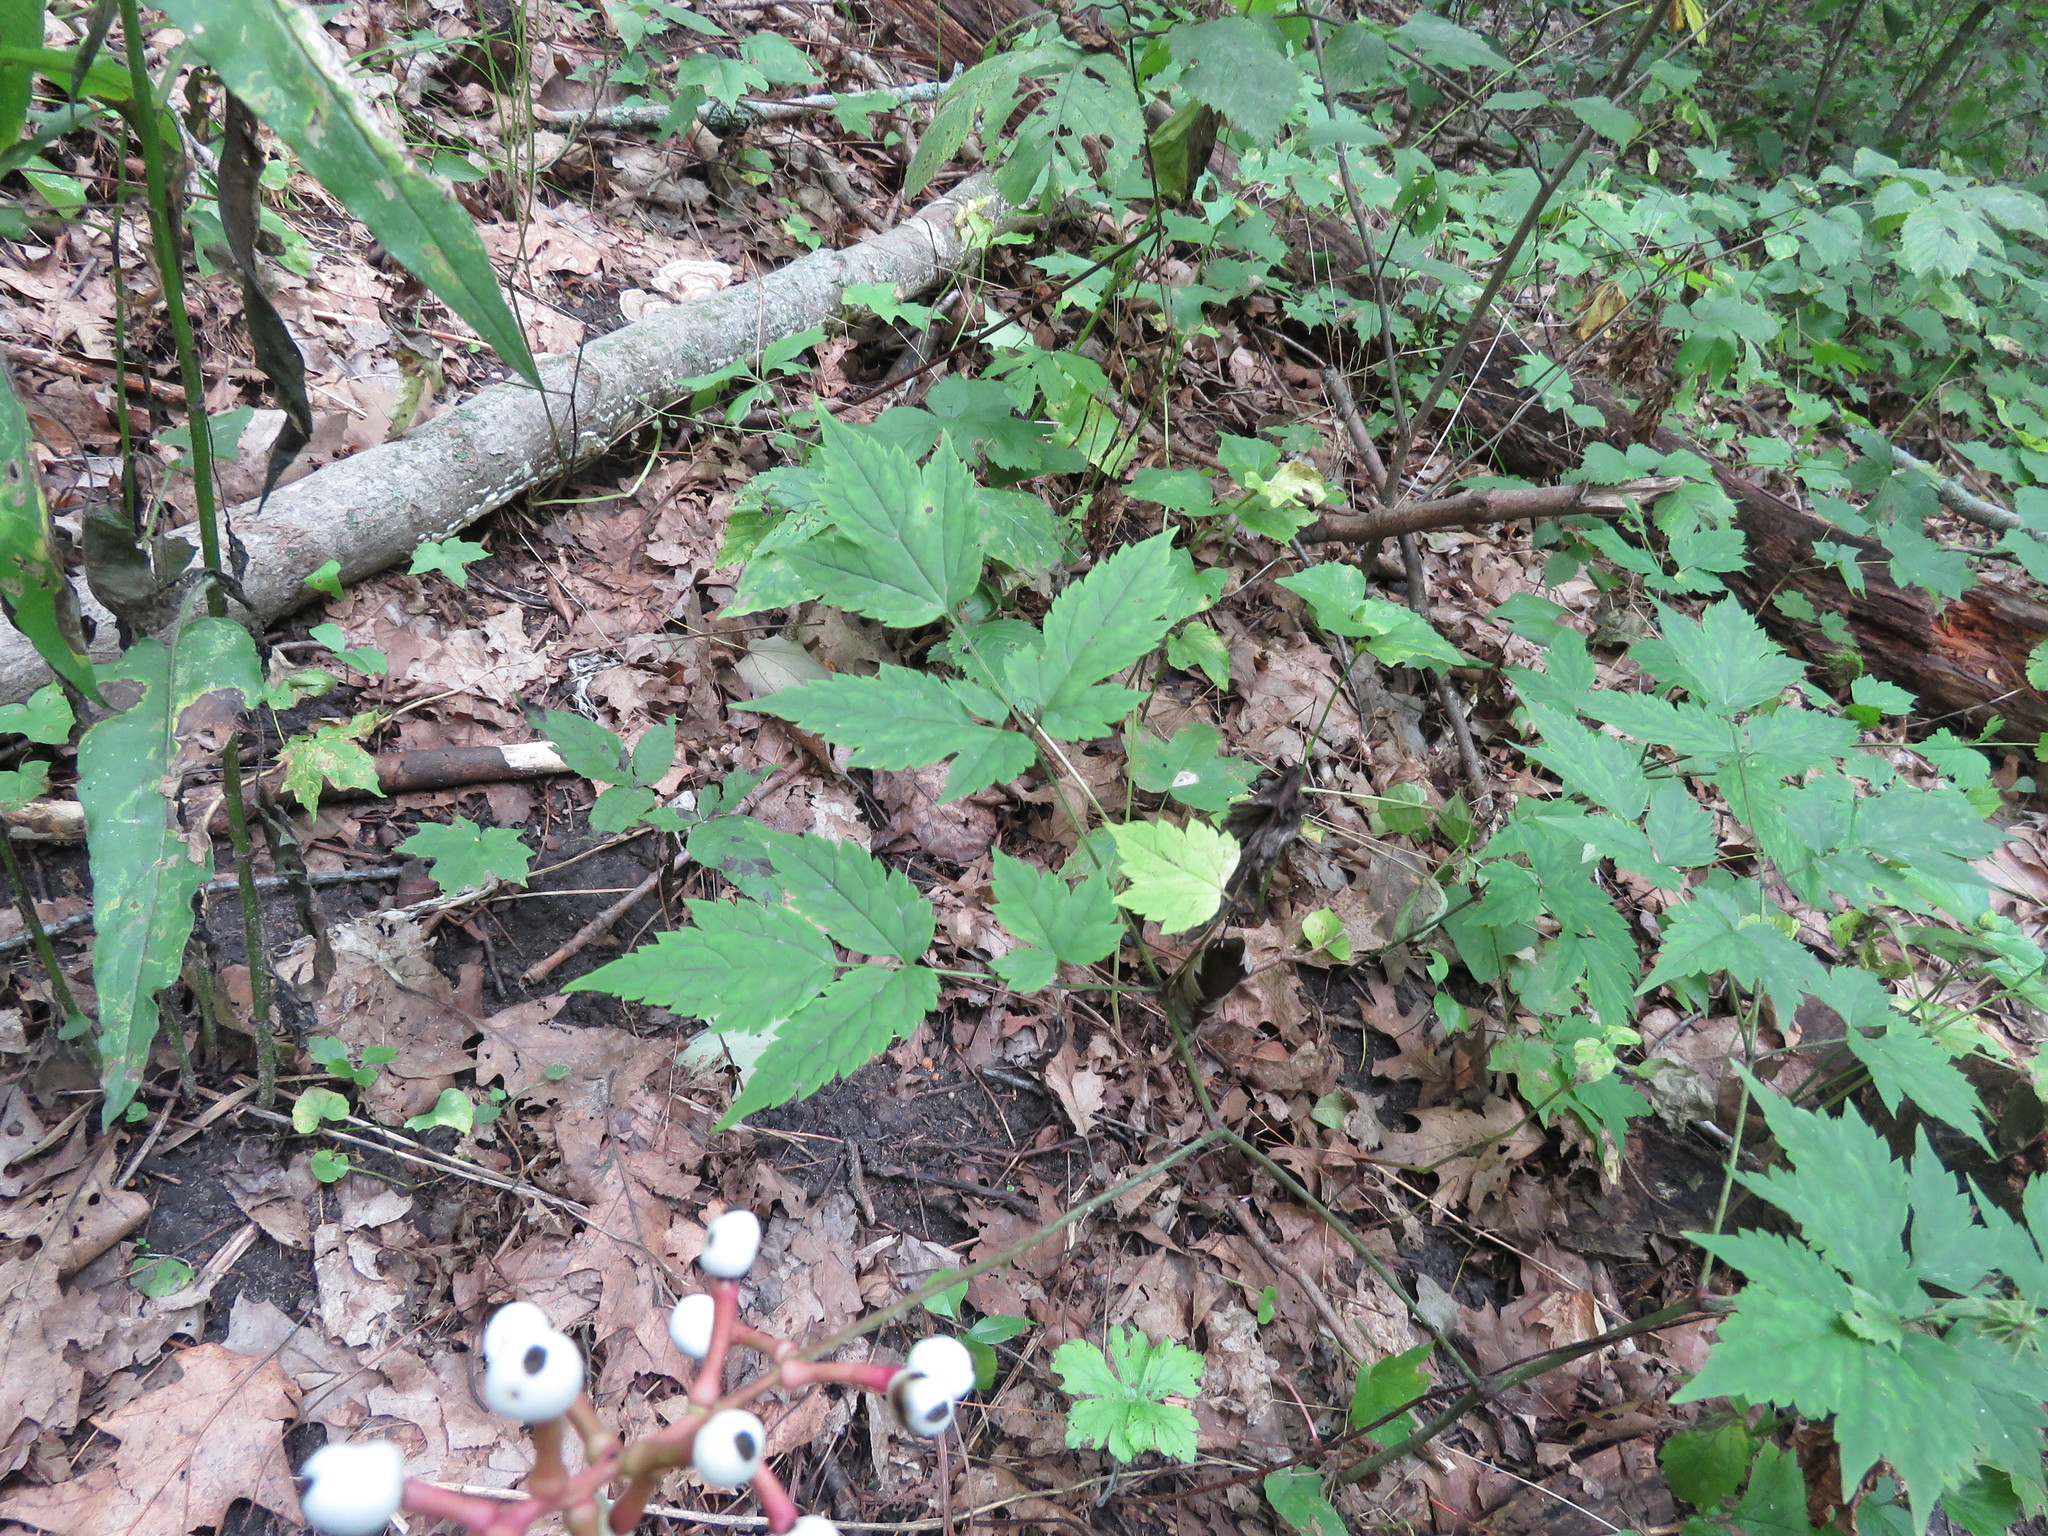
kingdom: Plantae
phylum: Tracheophyta
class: Magnoliopsida
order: Ranunculales
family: Ranunculaceae
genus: Actaea
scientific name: Actaea pachypoda
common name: Doll's-eyes
